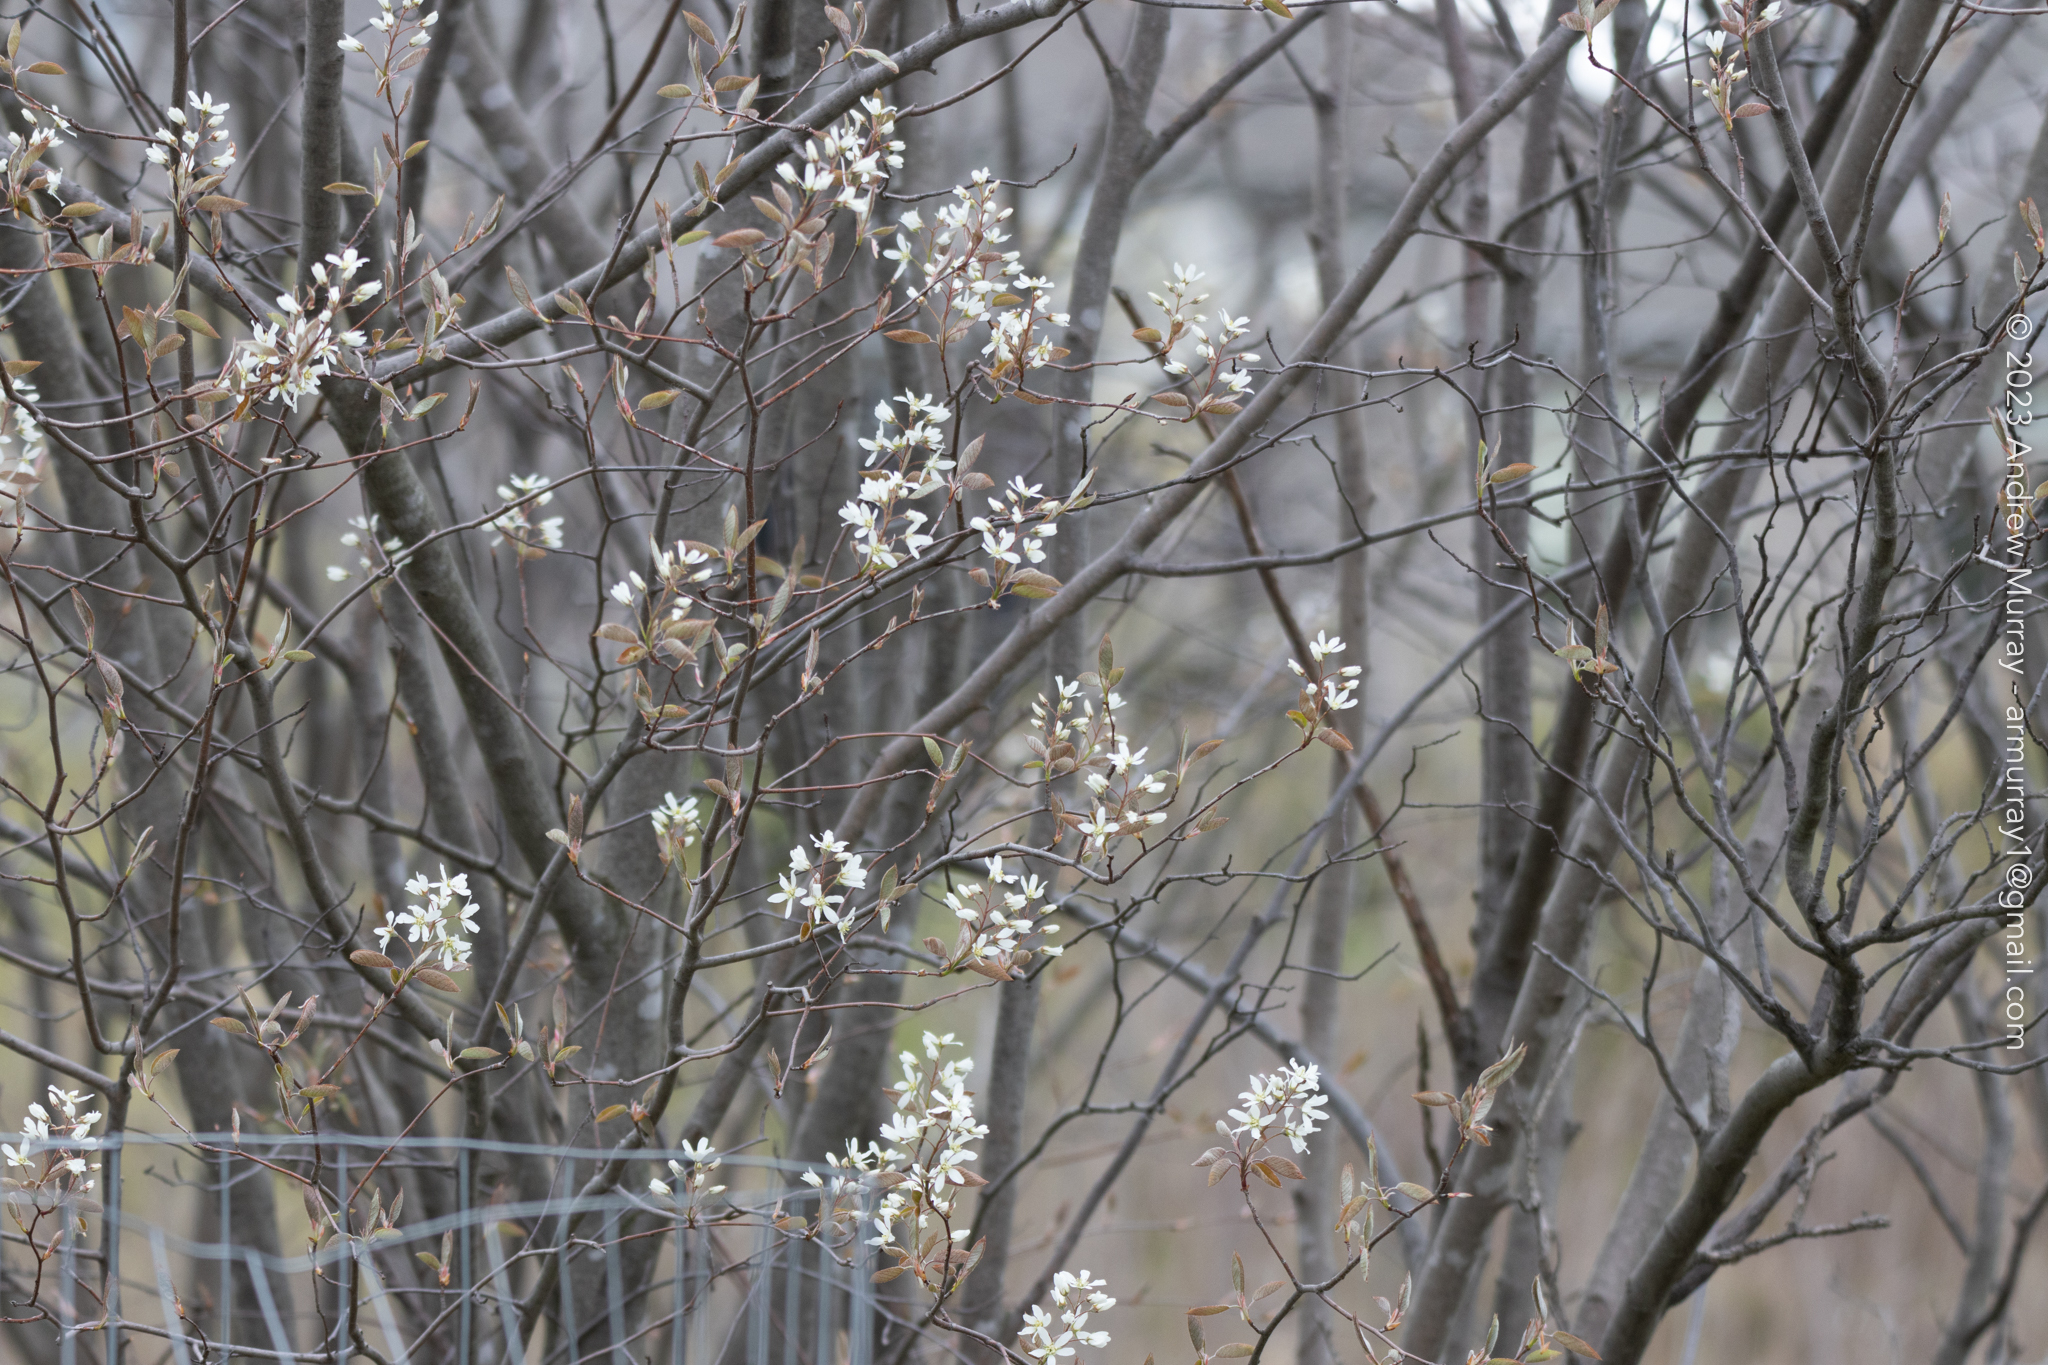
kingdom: Plantae
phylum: Tracheophyta
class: Magnoliopsida
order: Rosales
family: Rosaceae
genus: Amelanchier
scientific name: Amelanchier arborea
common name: Downy serviceberry
